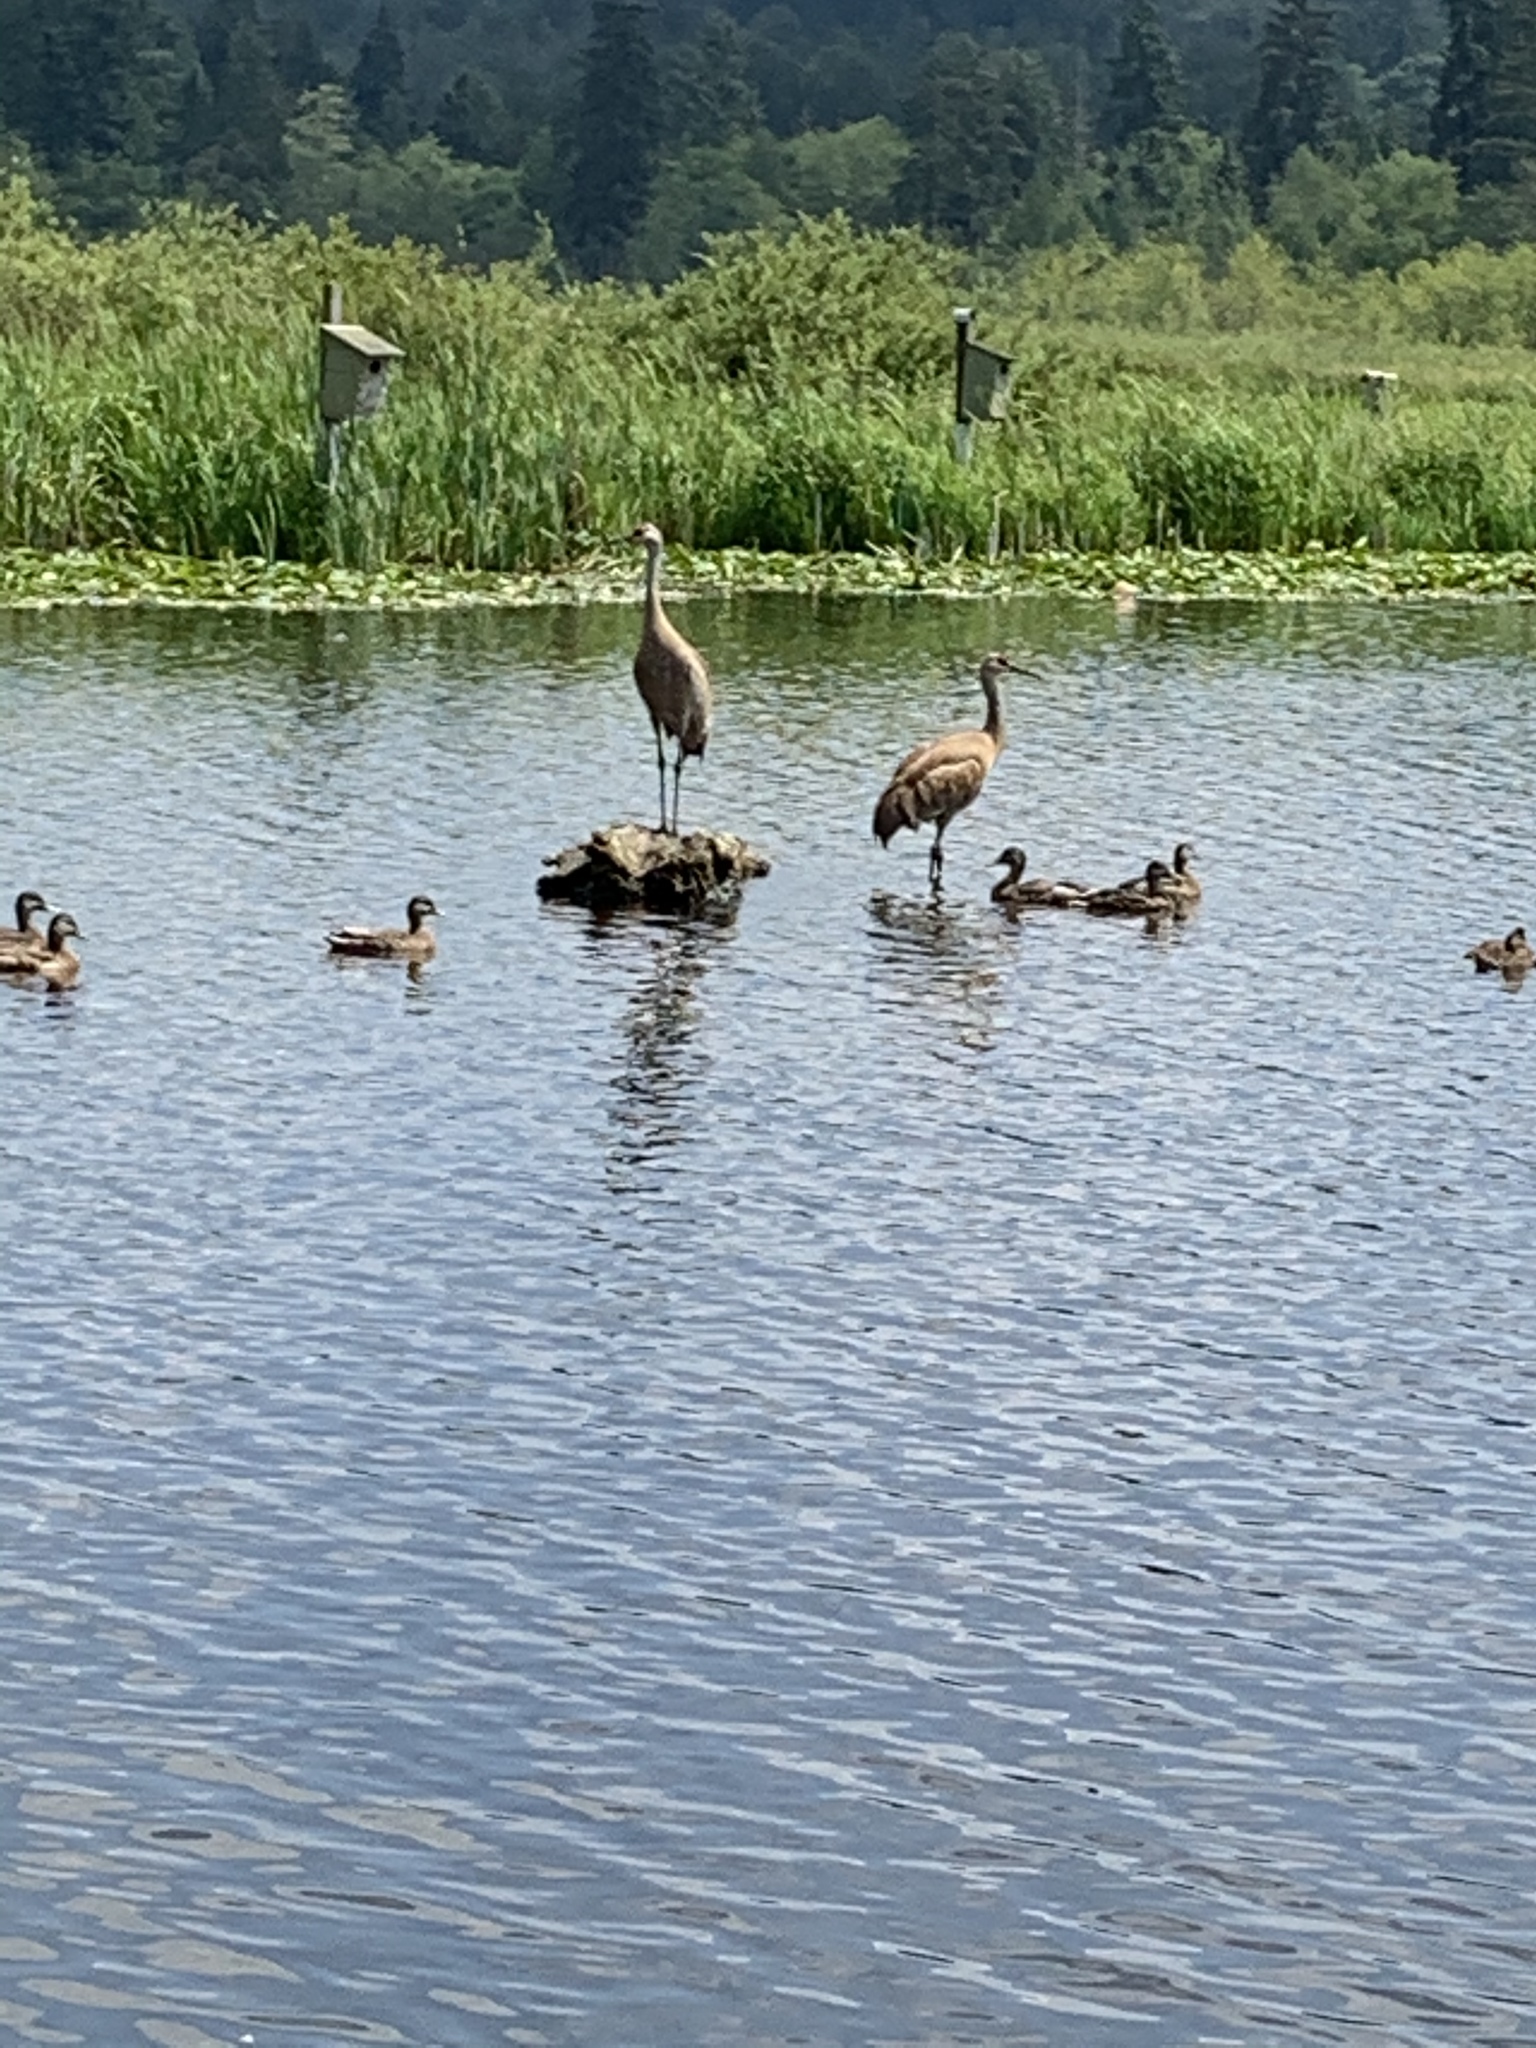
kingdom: Animalia
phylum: Chordata
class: Aves
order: Gruiformes
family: Gruidae
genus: Grus
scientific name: Grus canadensis
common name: Sandhill crane
